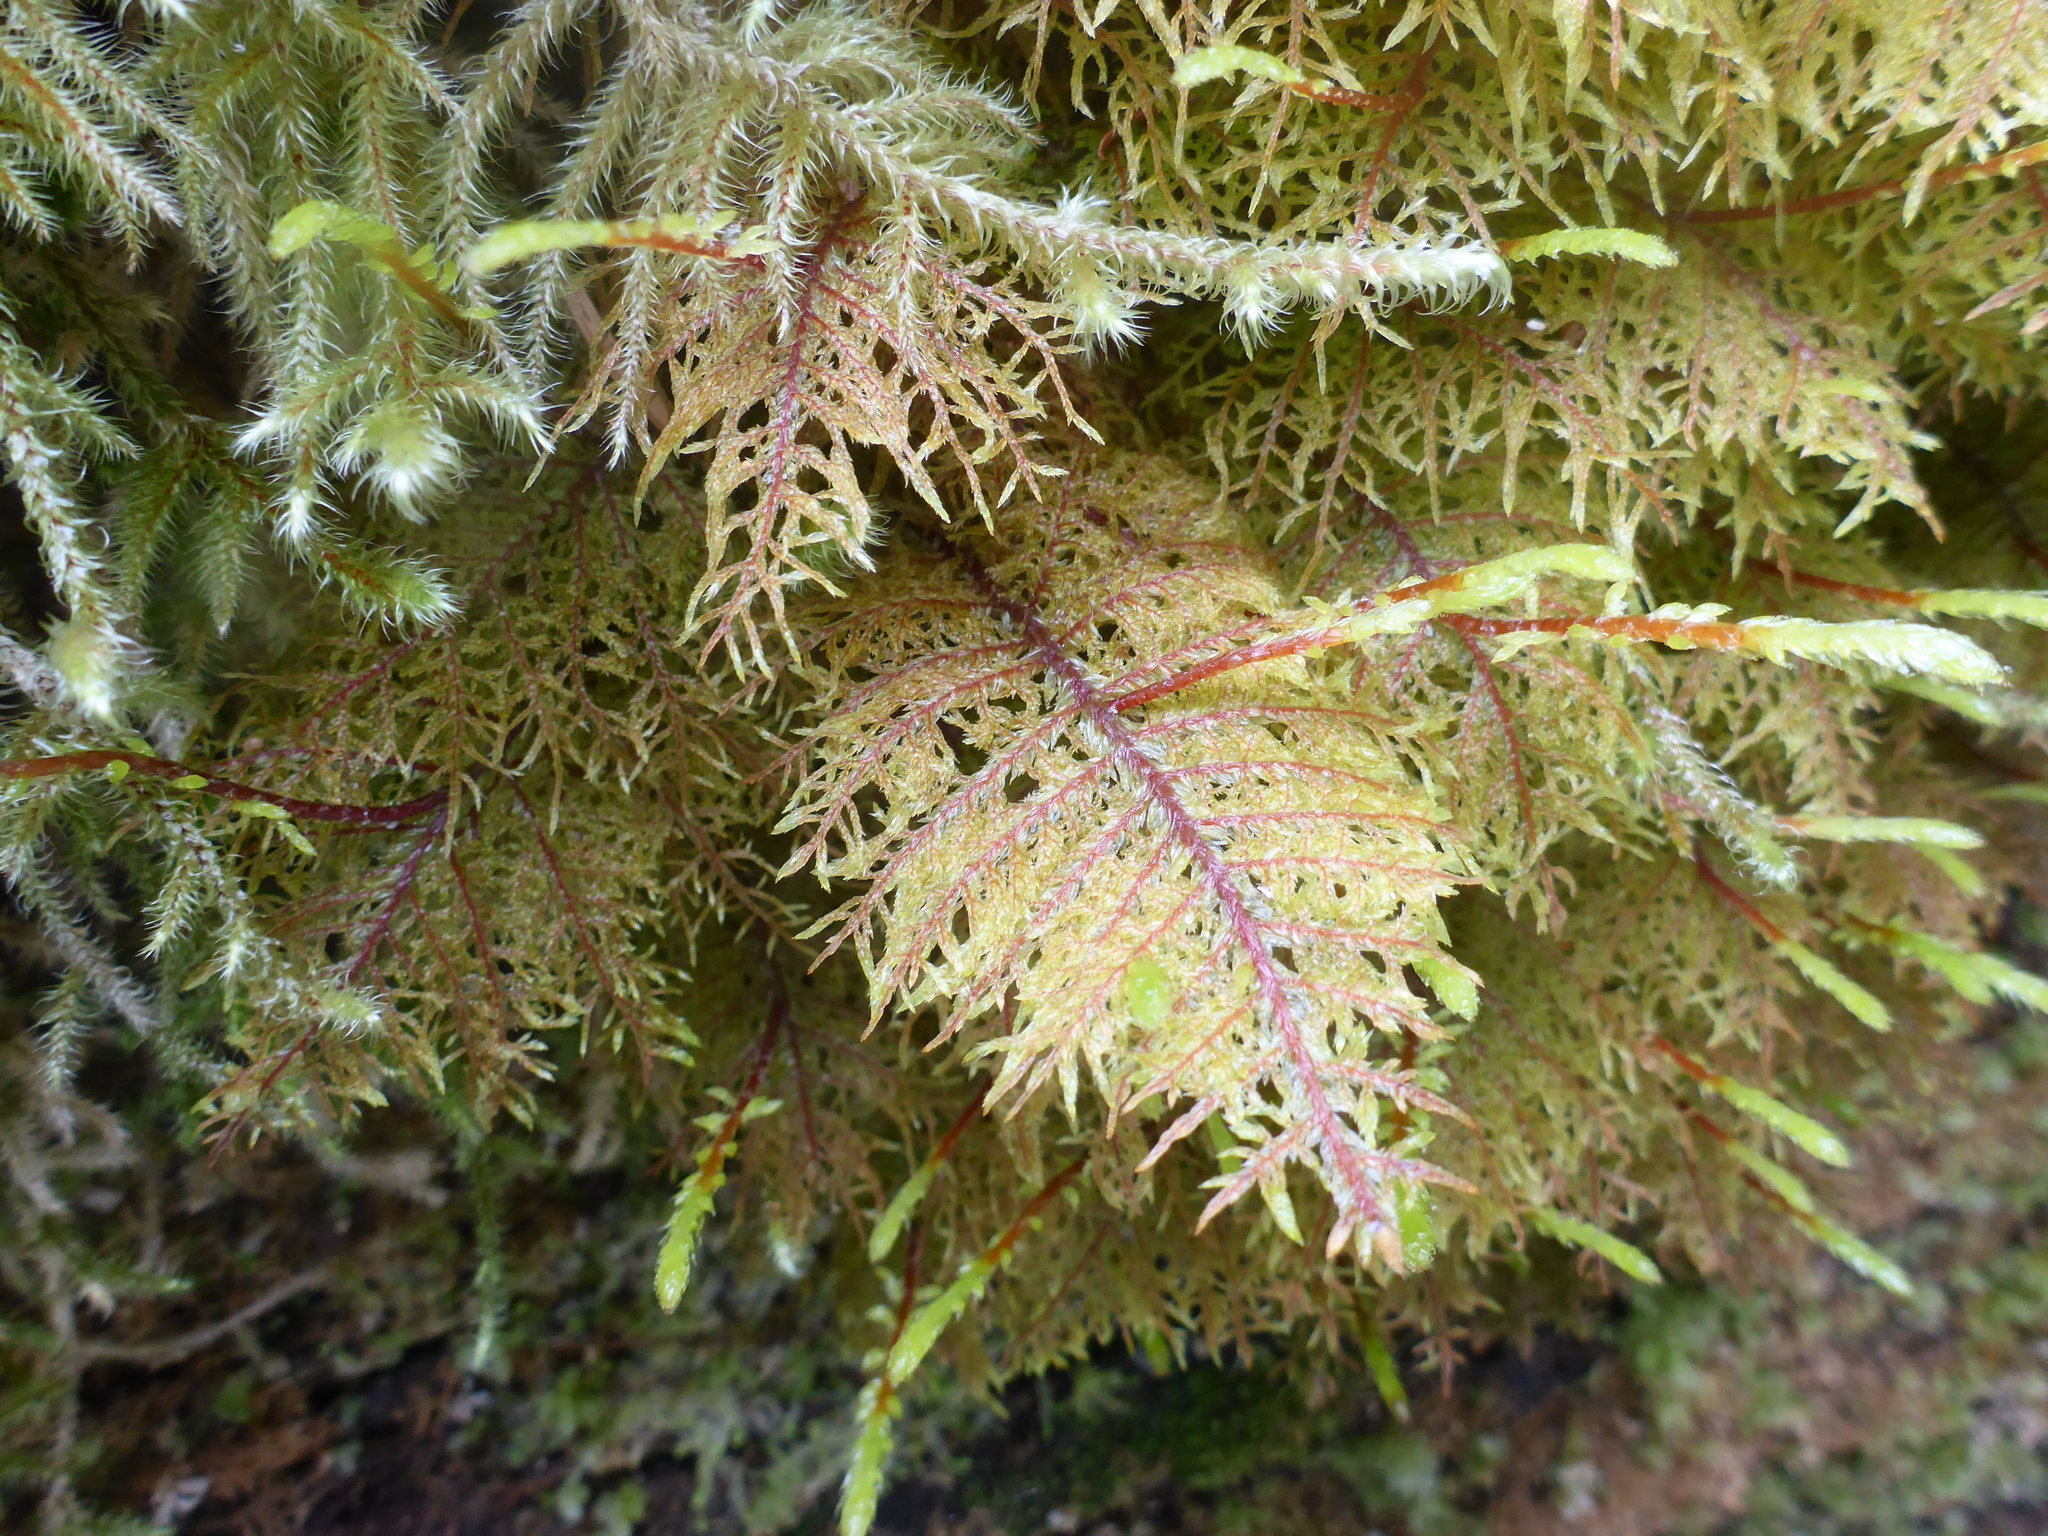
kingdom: Plantae
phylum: Bryophyta
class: Bryopsida
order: Hypnales
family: Hylocomiaceae
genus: Hylocomium
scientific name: Hylocomium splendens
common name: Stairstep moss
